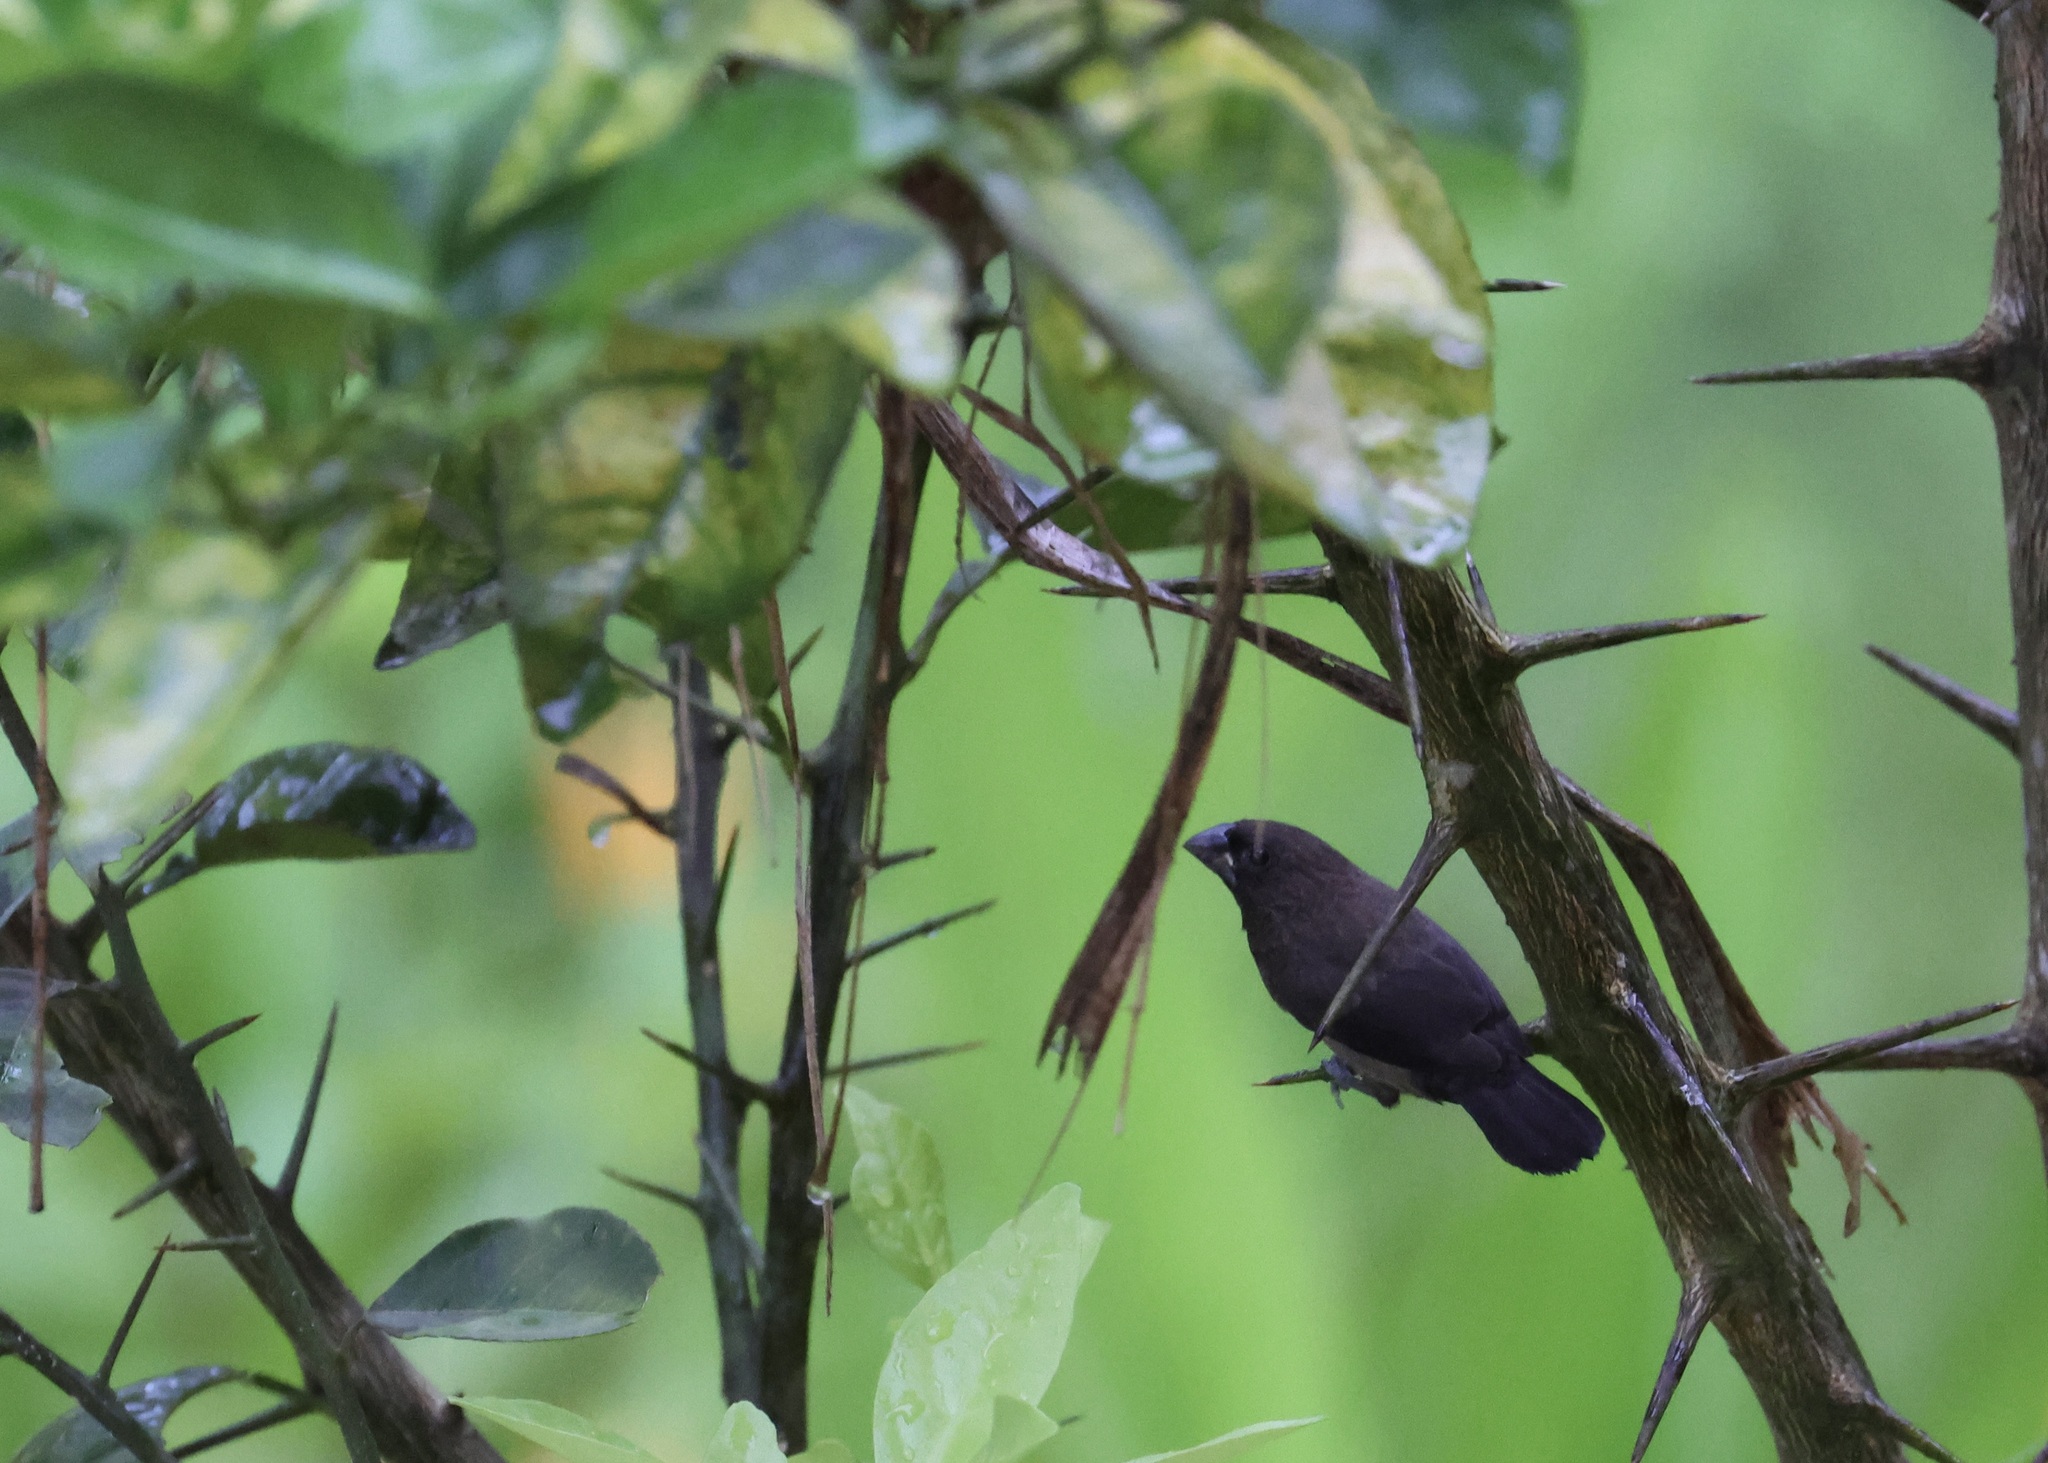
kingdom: Animalia
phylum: Chordata
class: Aves
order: Passeriformes
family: Estrildidae
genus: Lonchura
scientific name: Lonchura fuscans
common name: Dusky munia
